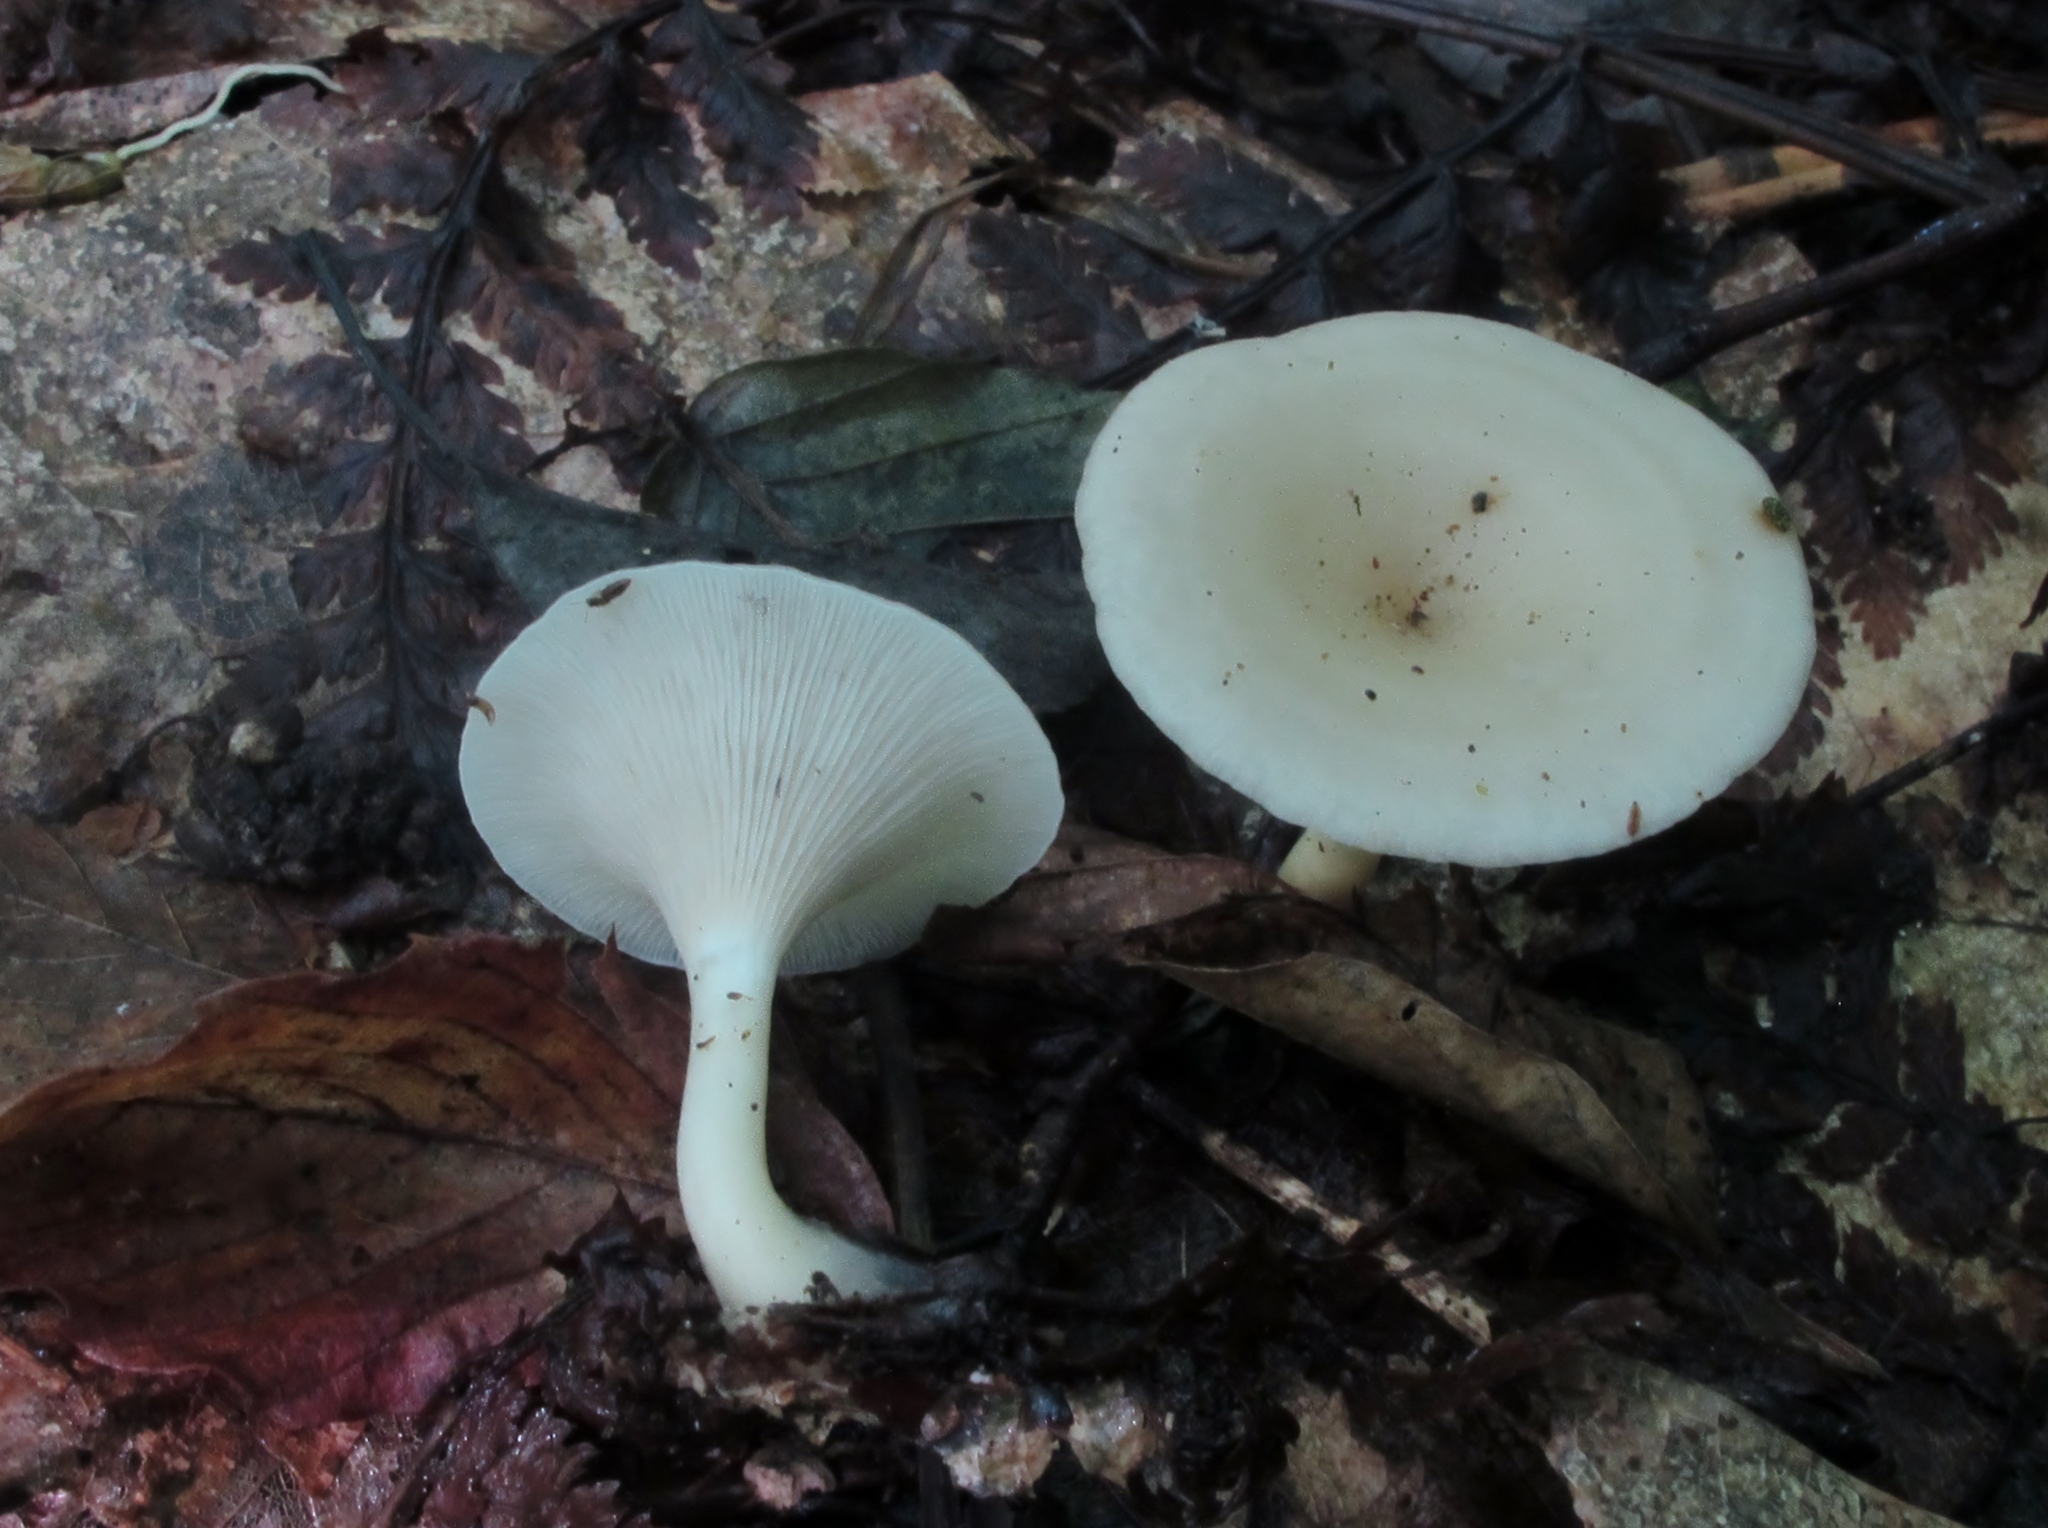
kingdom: Fungi
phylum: Basidiomycota
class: Agaricomycetes
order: Agaricales
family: Tricholomataceae
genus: Singerocybe
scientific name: Singerocybe adirondackensis
